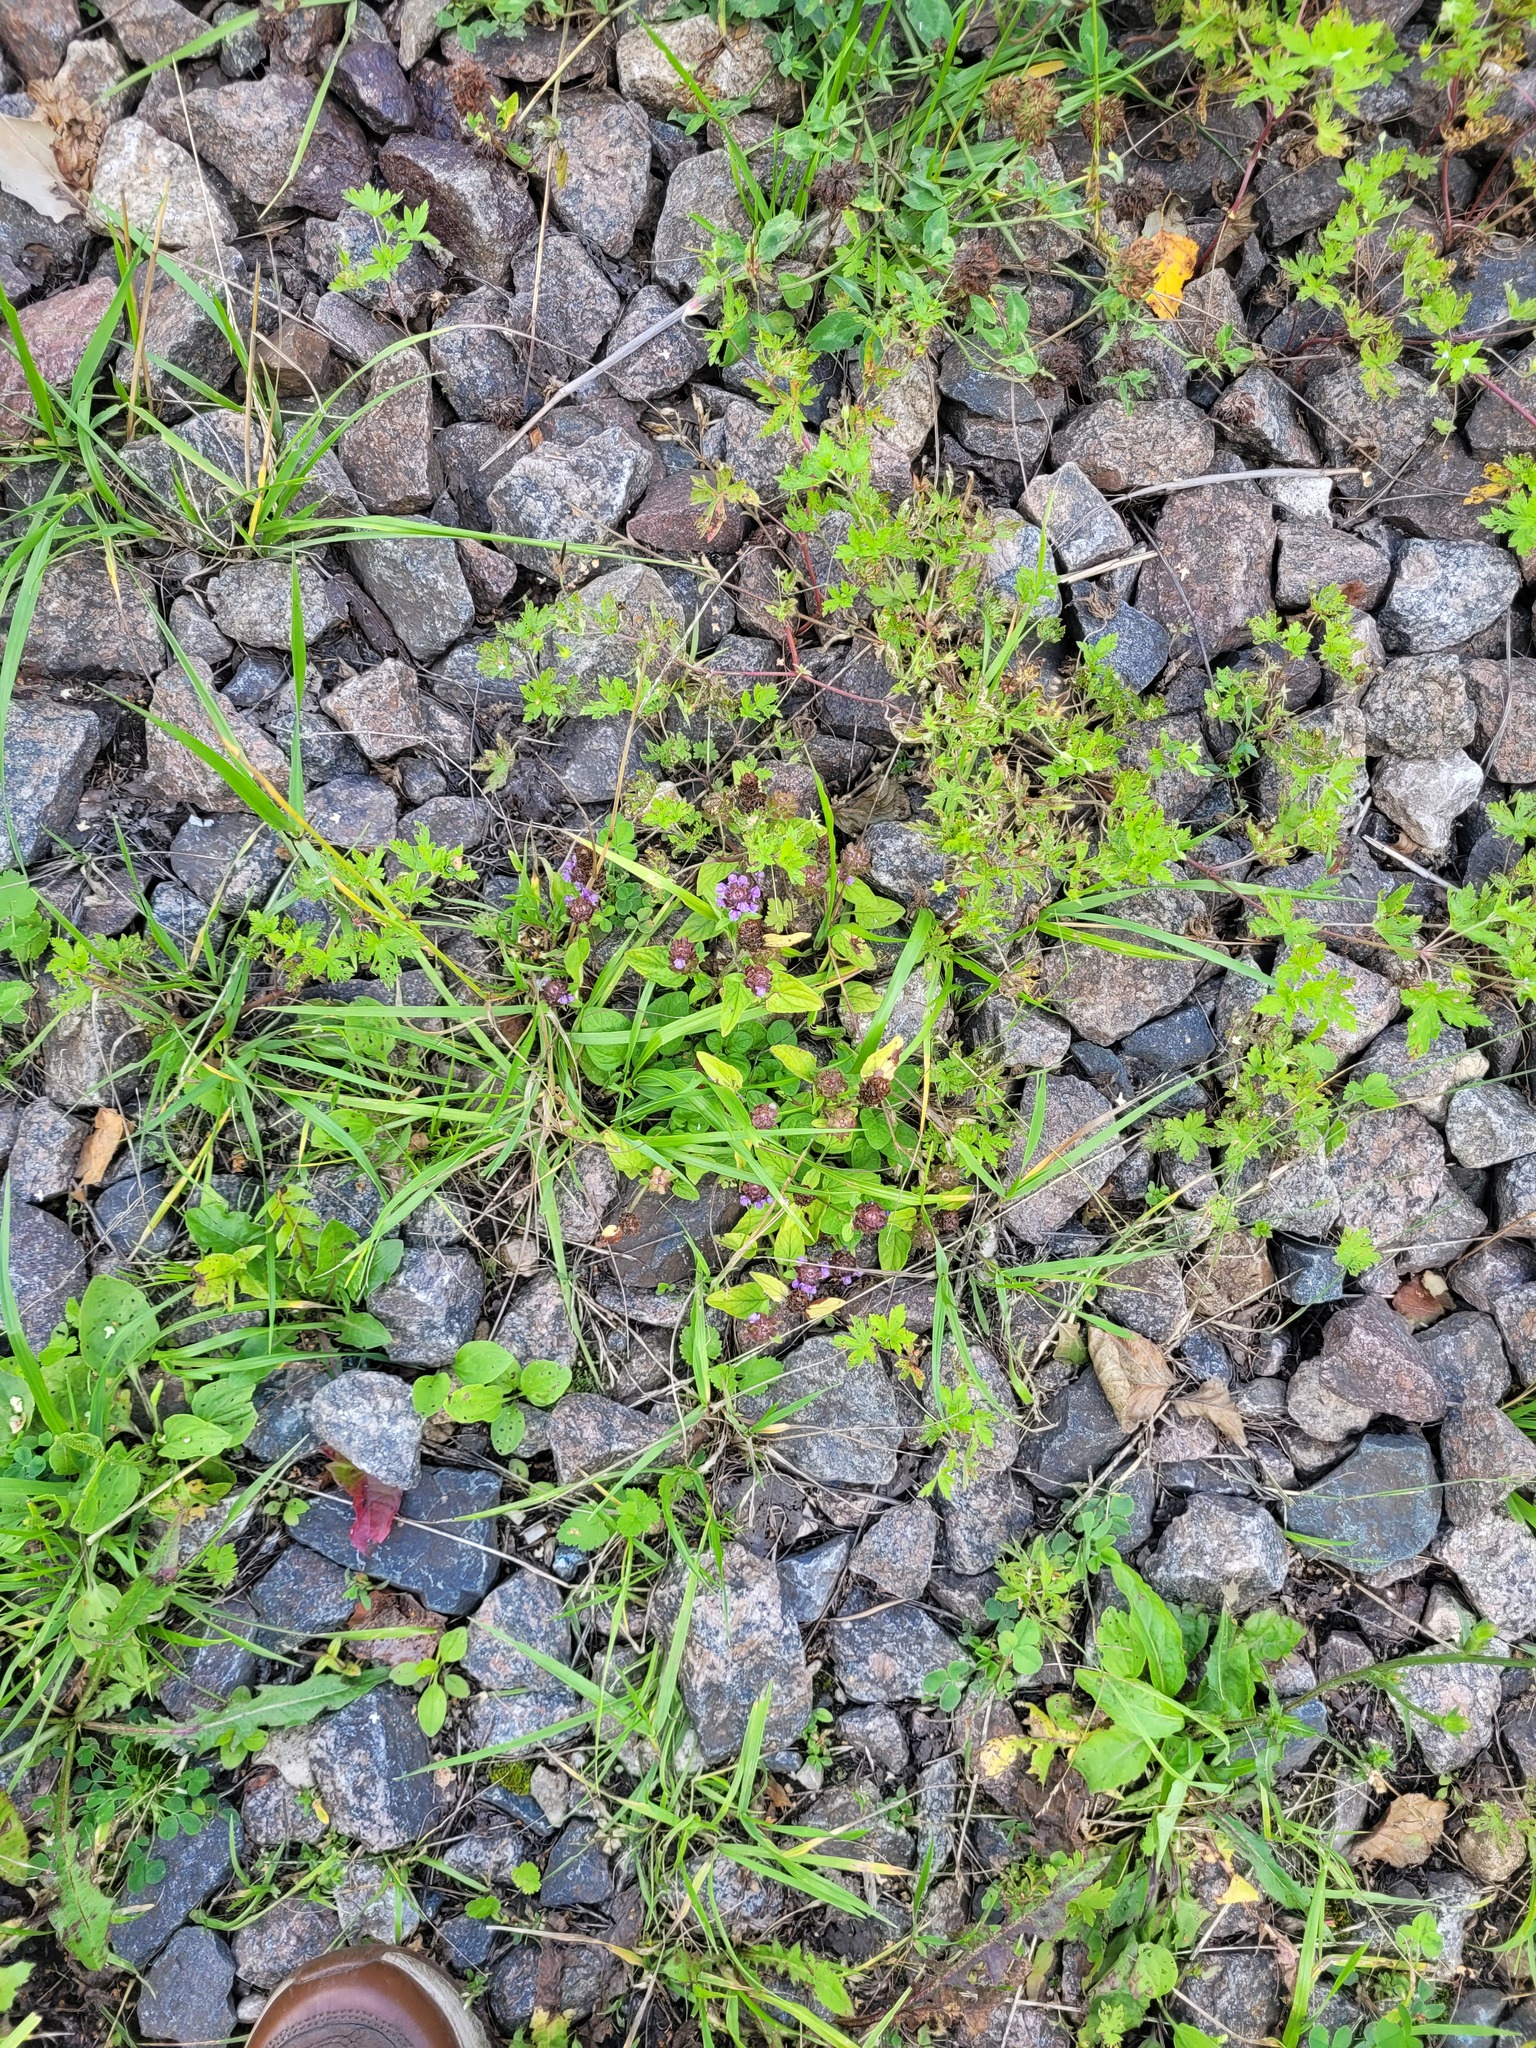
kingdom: Plantae
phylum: Tracheophyta
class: Magnoliopsida
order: Lamiales
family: Lamiaceae
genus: Prunella
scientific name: Prunella vulgaris
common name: Heal-all
